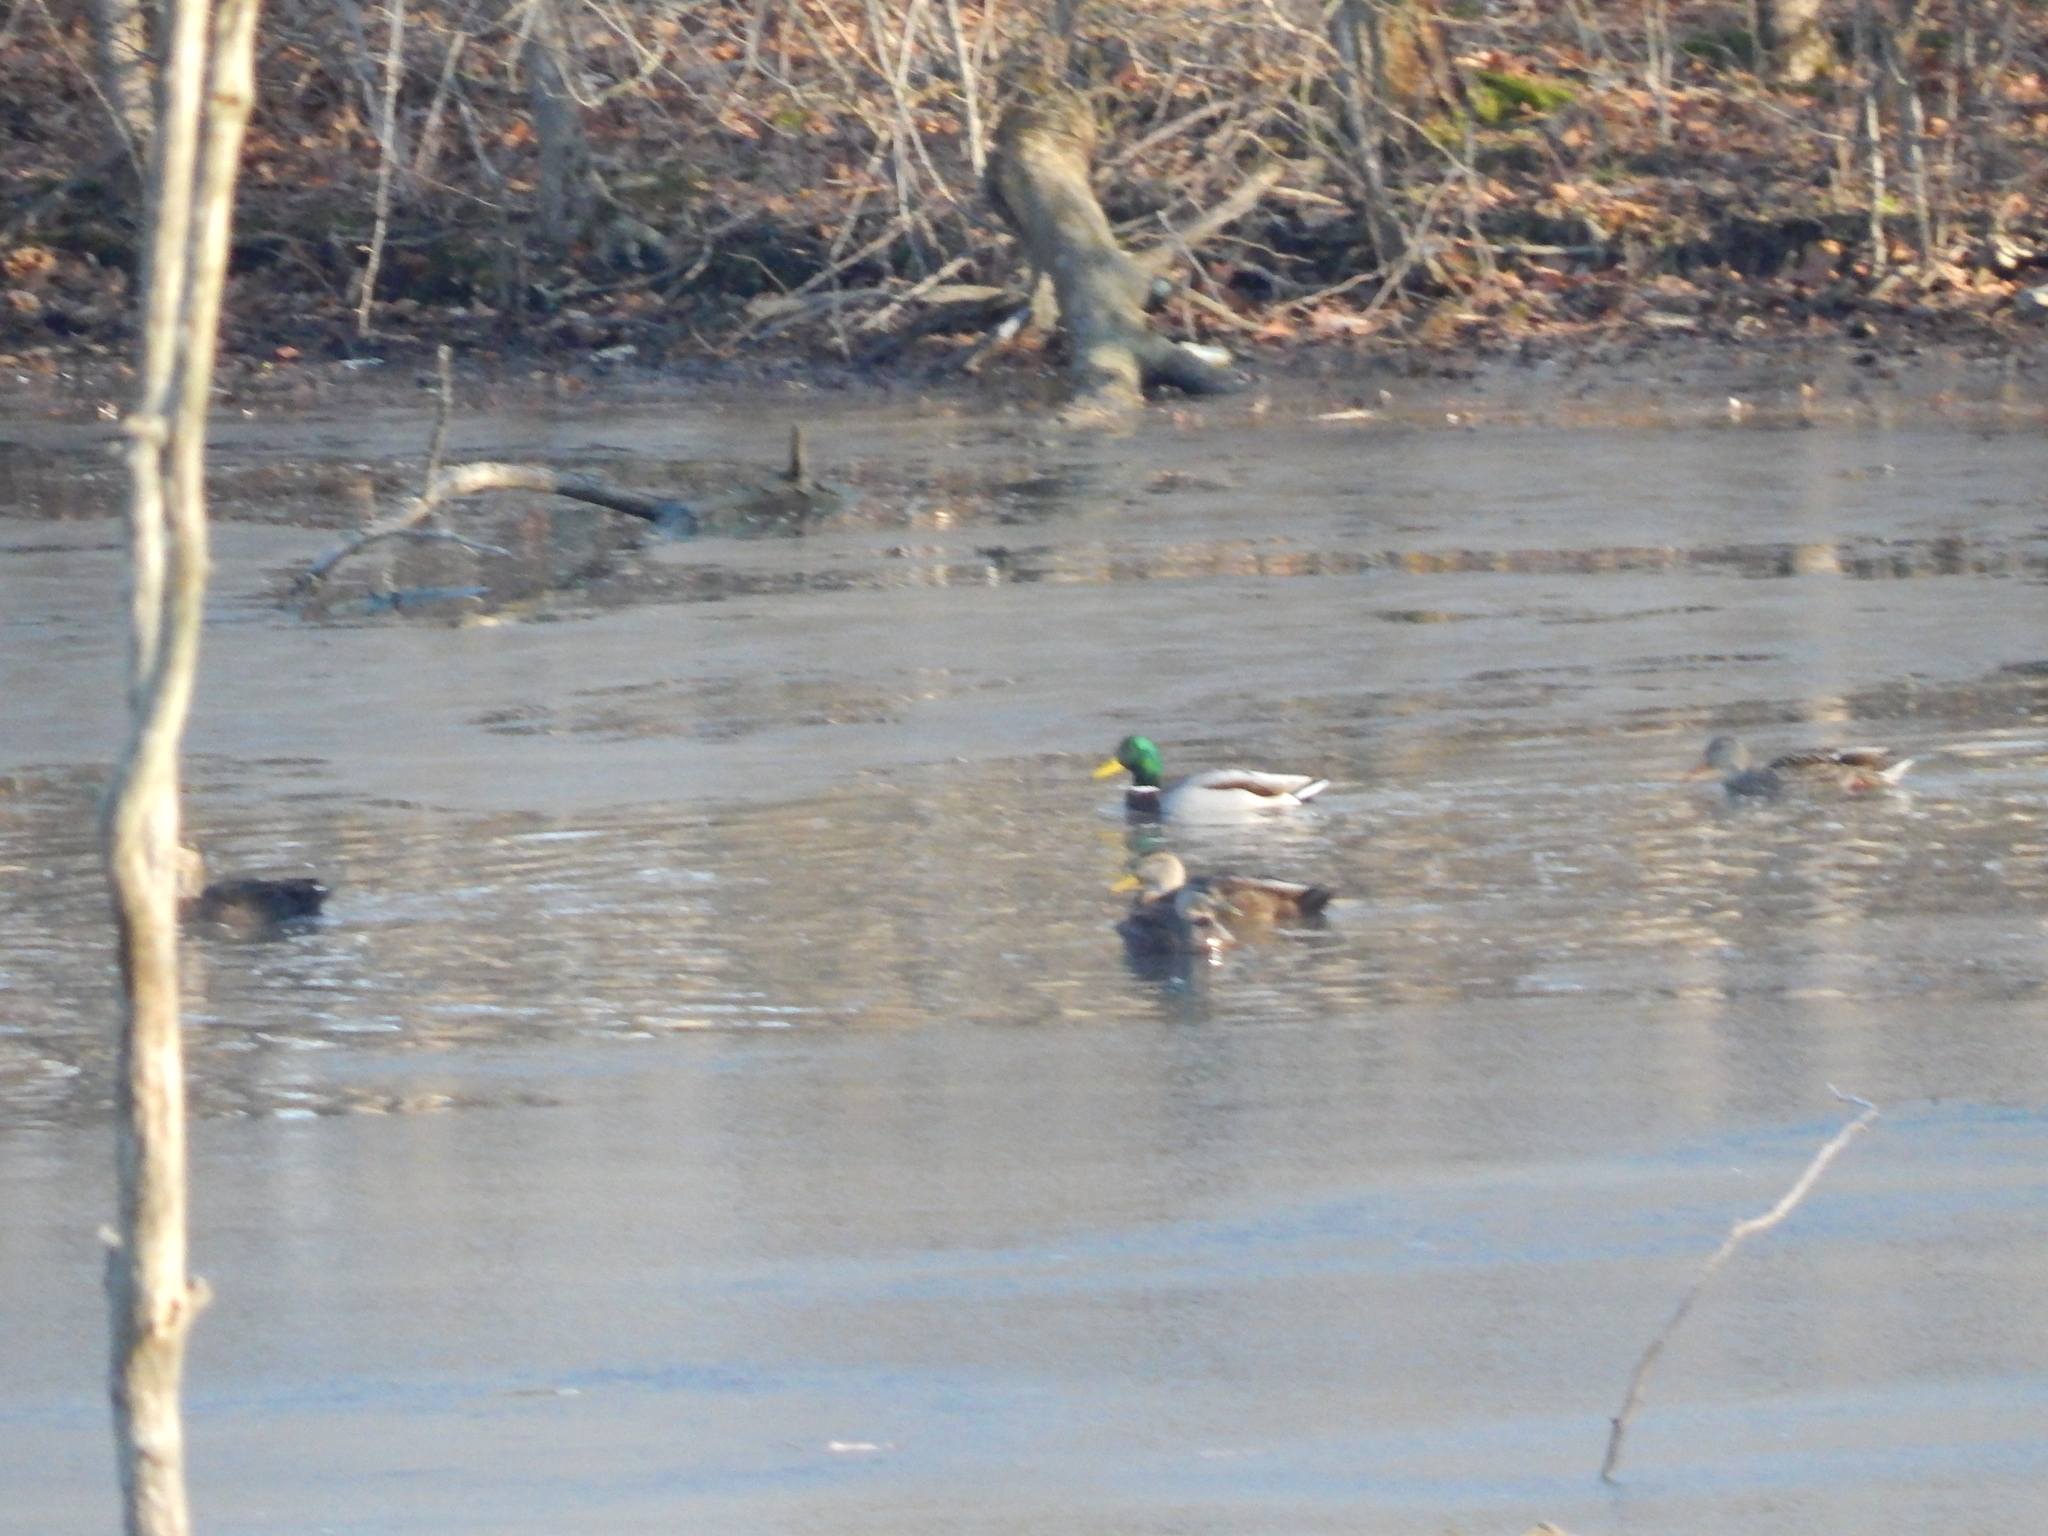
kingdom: Animalia
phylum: Chordata
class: Aves
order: Anseriformes
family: Anatidae
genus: Anas
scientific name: Anas platyrhynchos
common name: Mallard
